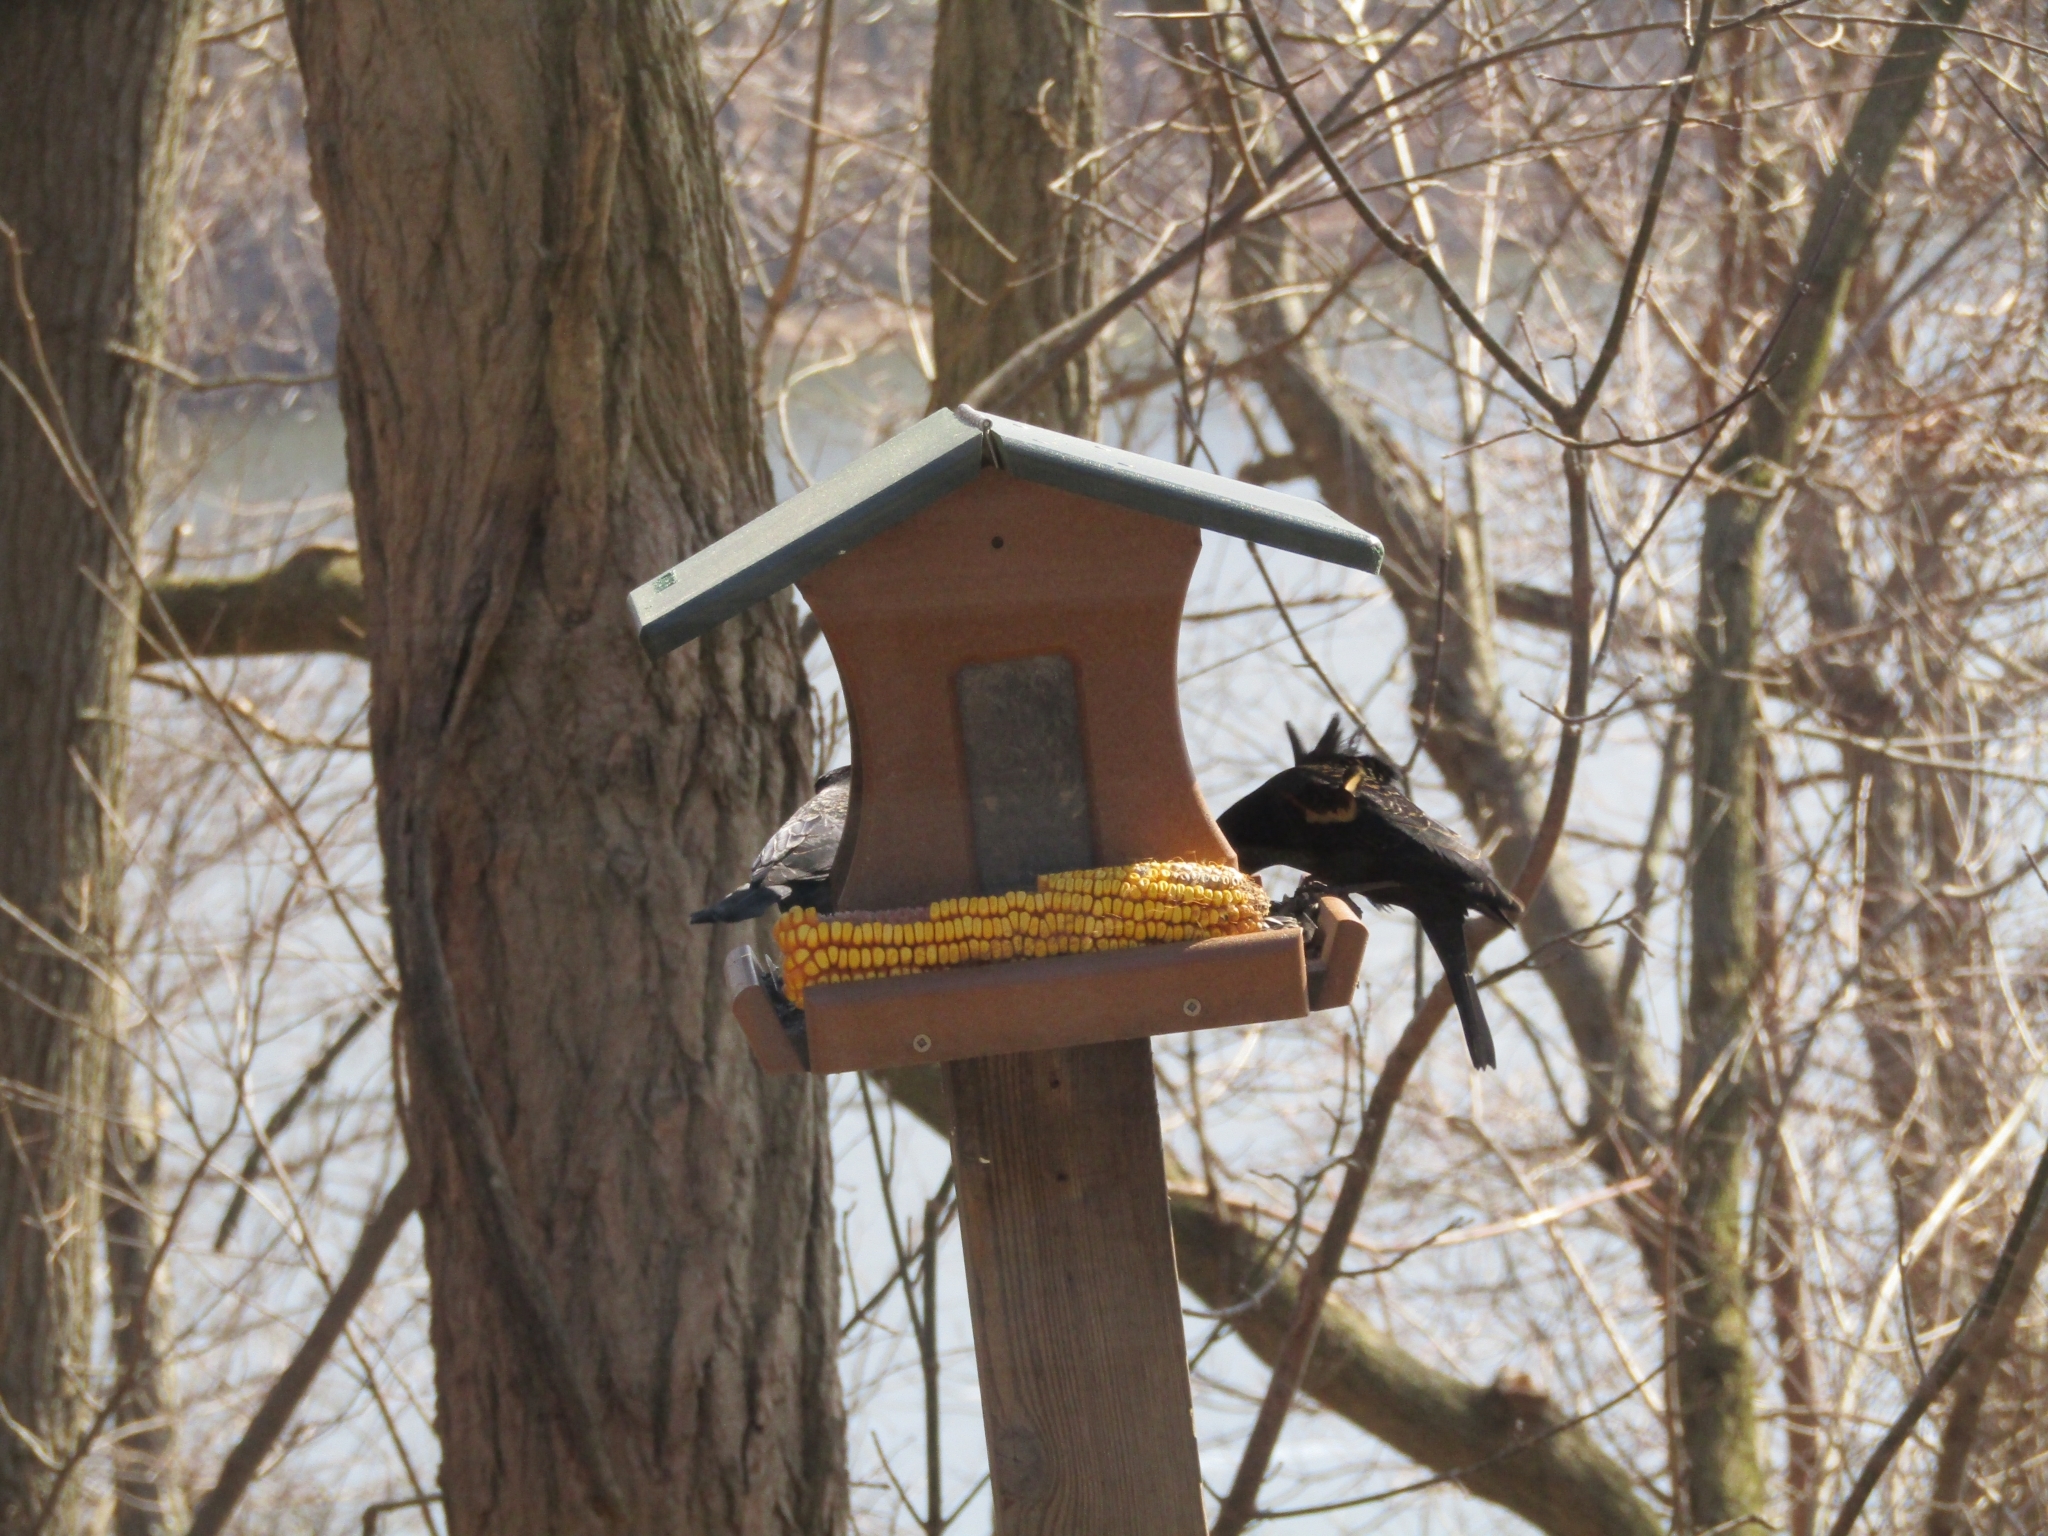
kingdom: Animalia
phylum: Chordata
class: Aves
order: Passeriformes
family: Icteridae
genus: Agelaius
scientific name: Agelaius phoeniceus
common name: Red-winged blackbird
